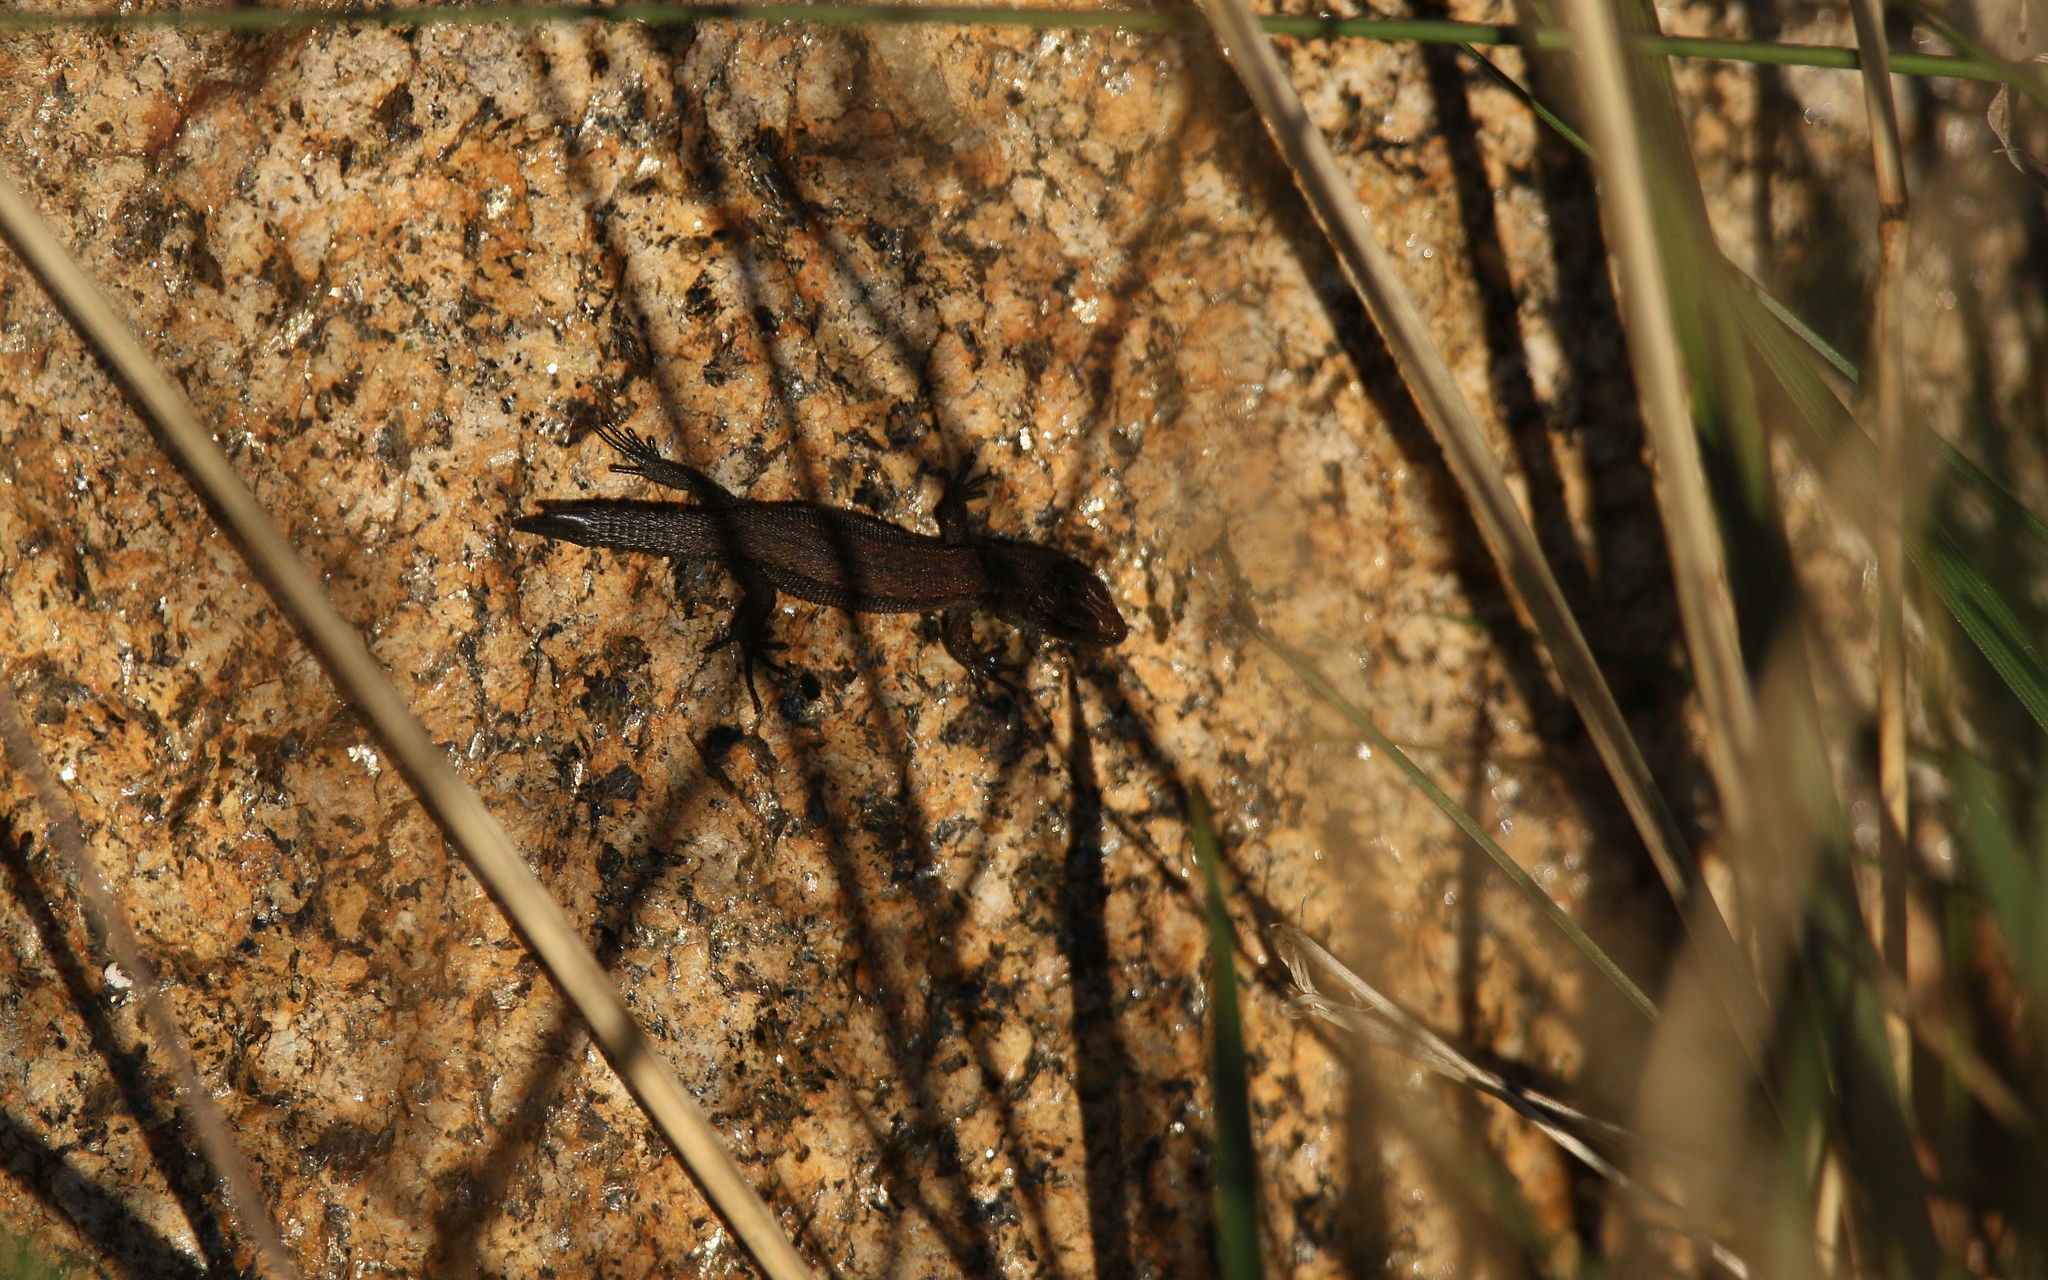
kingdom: Animalia
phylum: Chordata
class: Squamata
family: Lacertidae
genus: Zootoca
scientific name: Zootoca vivipara
